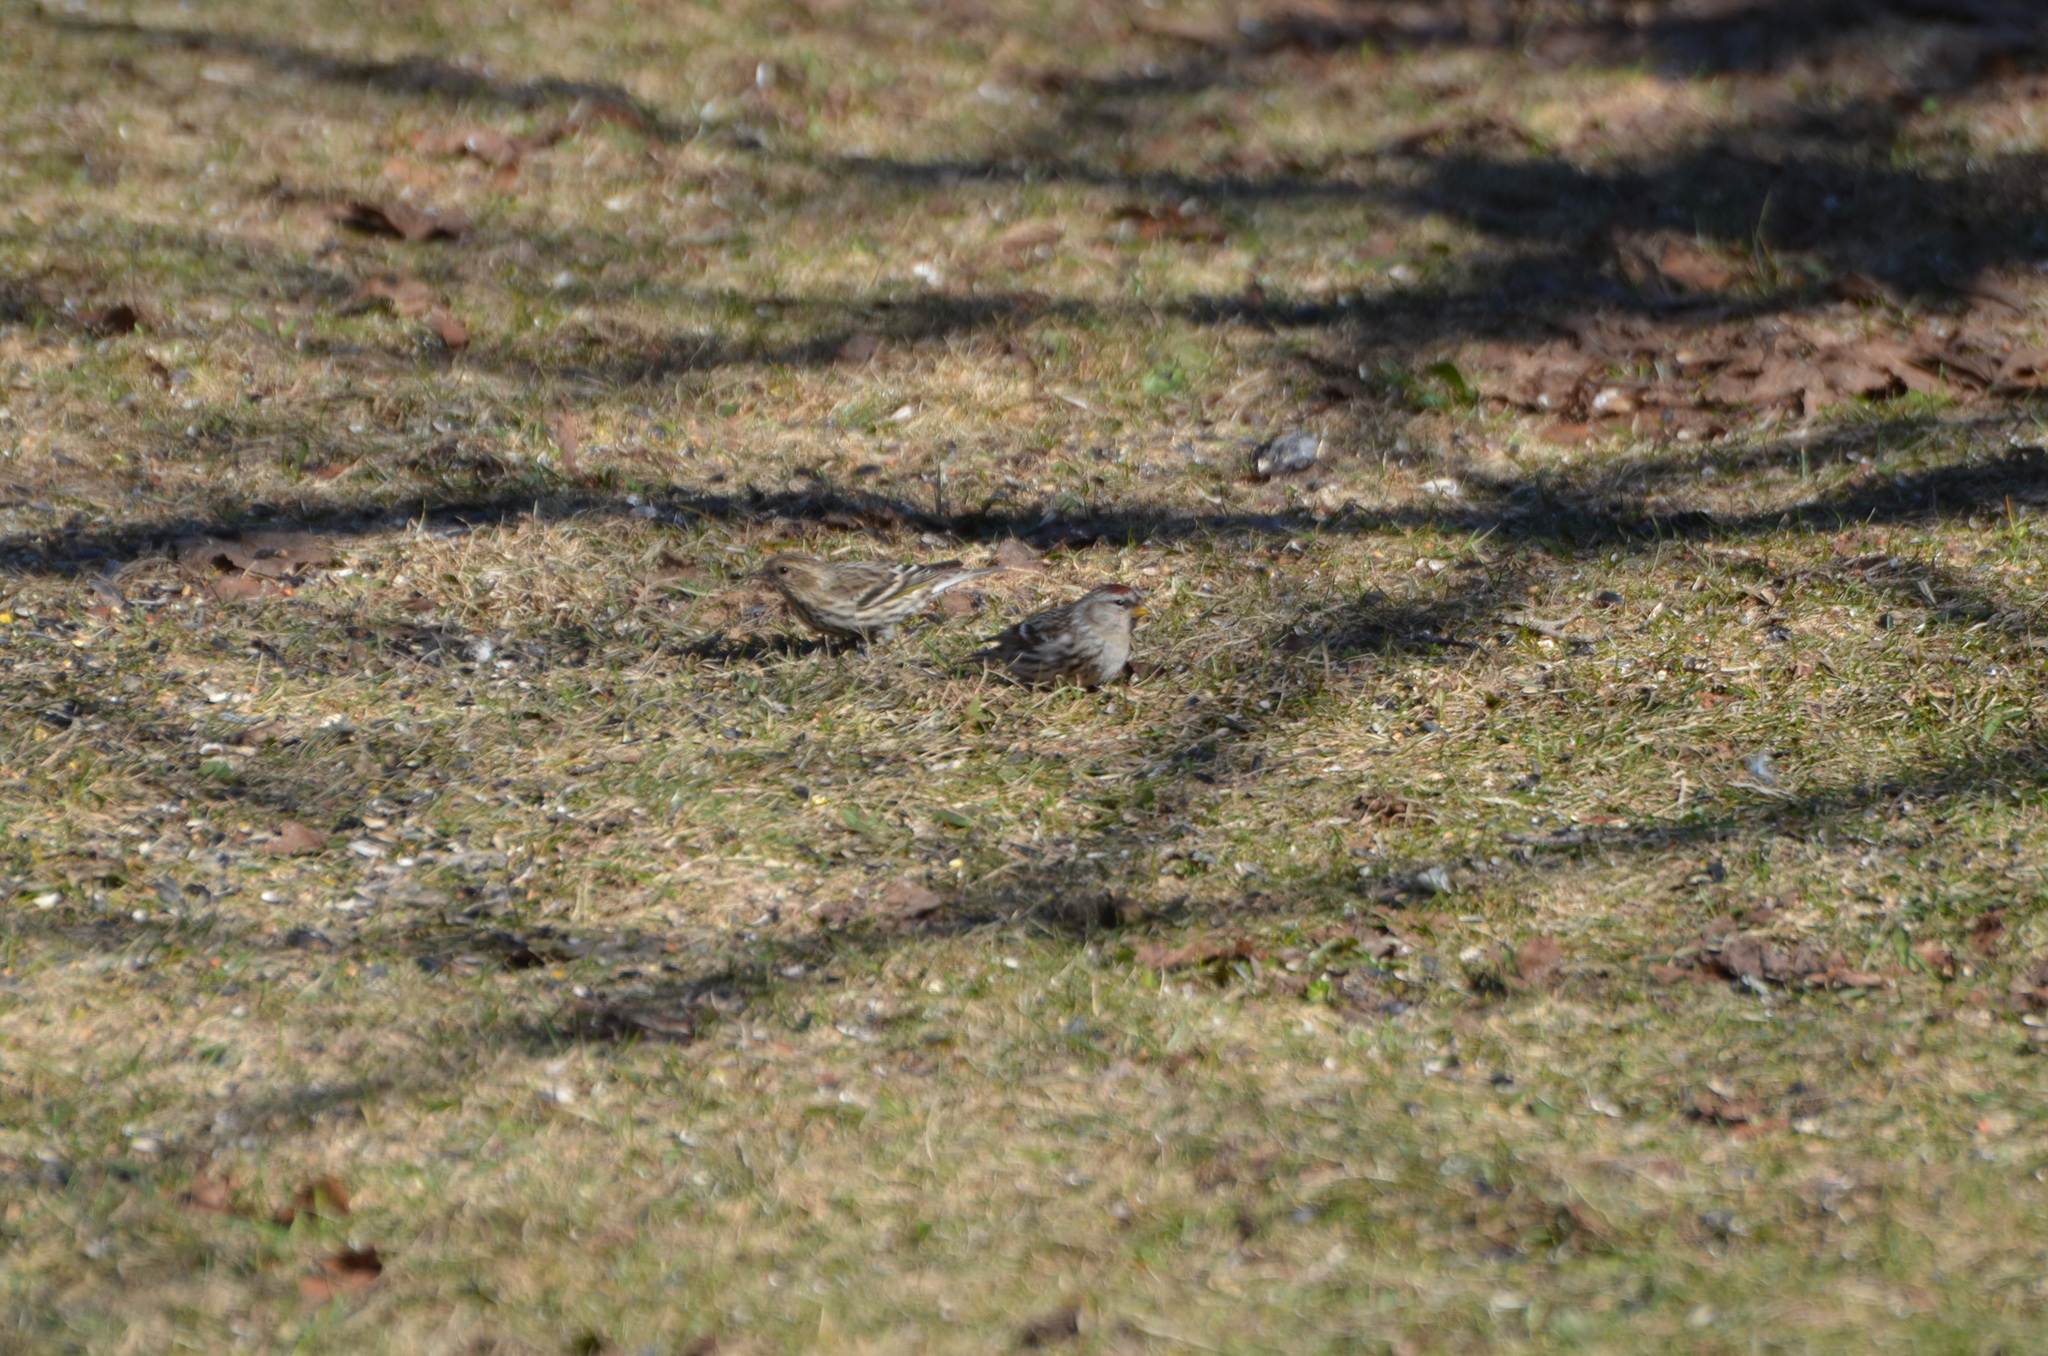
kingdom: Animalia
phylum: Chordata
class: Aves
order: Passeriformes
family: Fringillidae
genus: Acanthis
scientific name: Acanthis flammea
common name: Common redpoll
